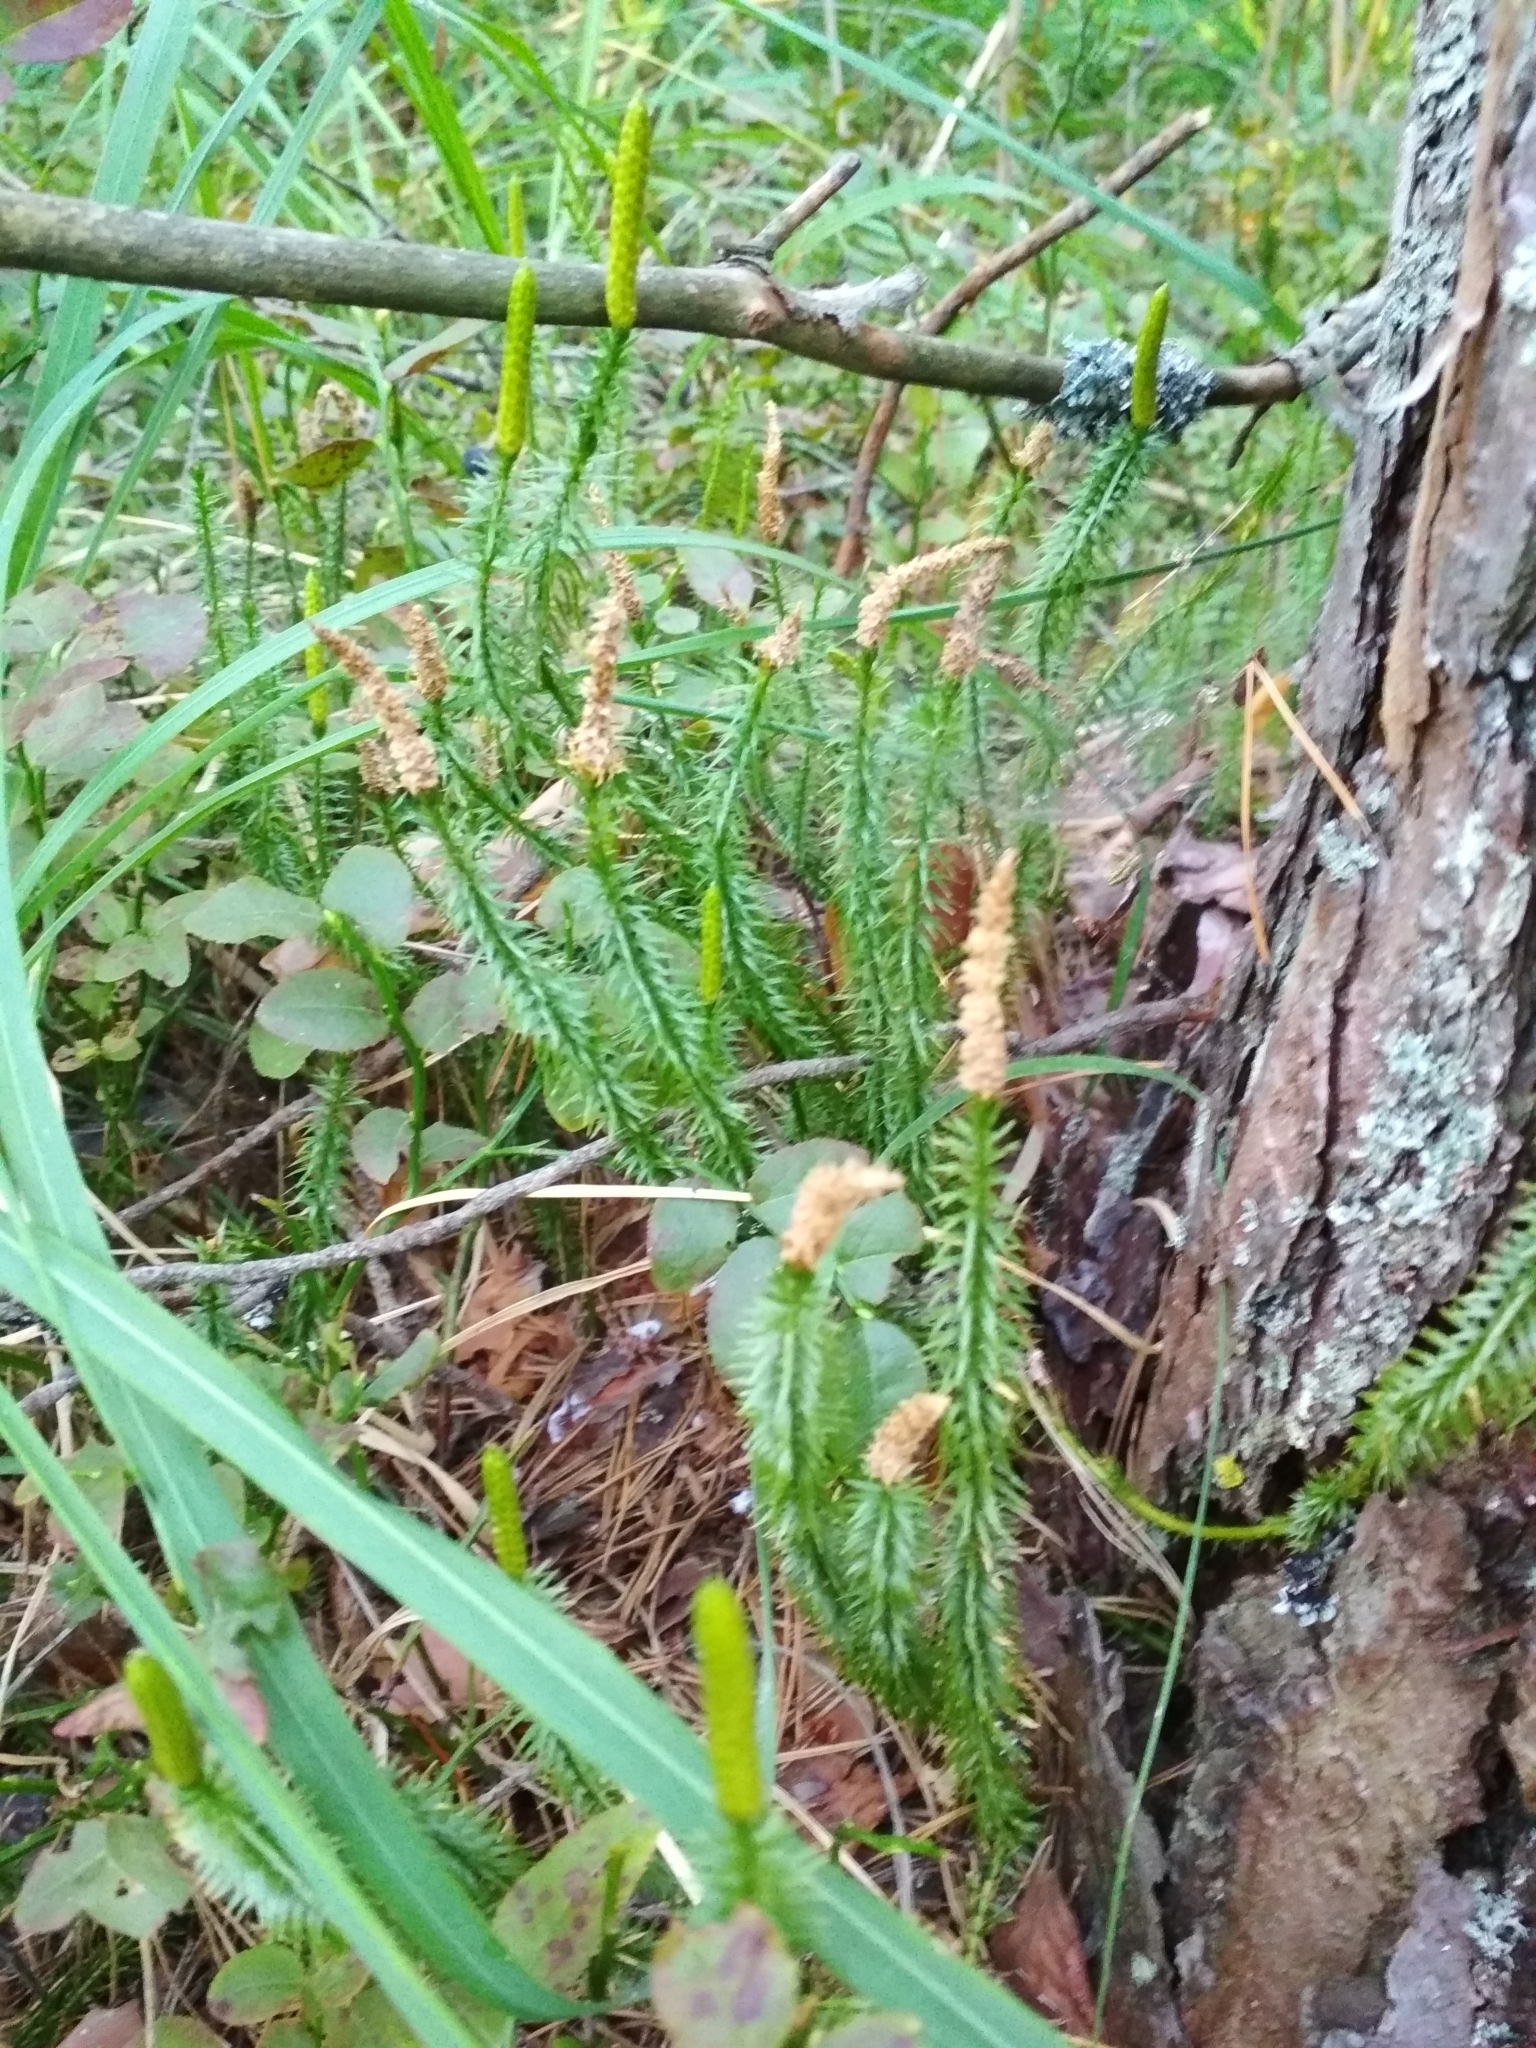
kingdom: Plantae
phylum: Tracheophyta
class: Lycopodiopsida
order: Lycopodiales
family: Lycopodiaceae
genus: Spinulum
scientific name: Spinulum annotinum
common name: Interrupted club-moss
